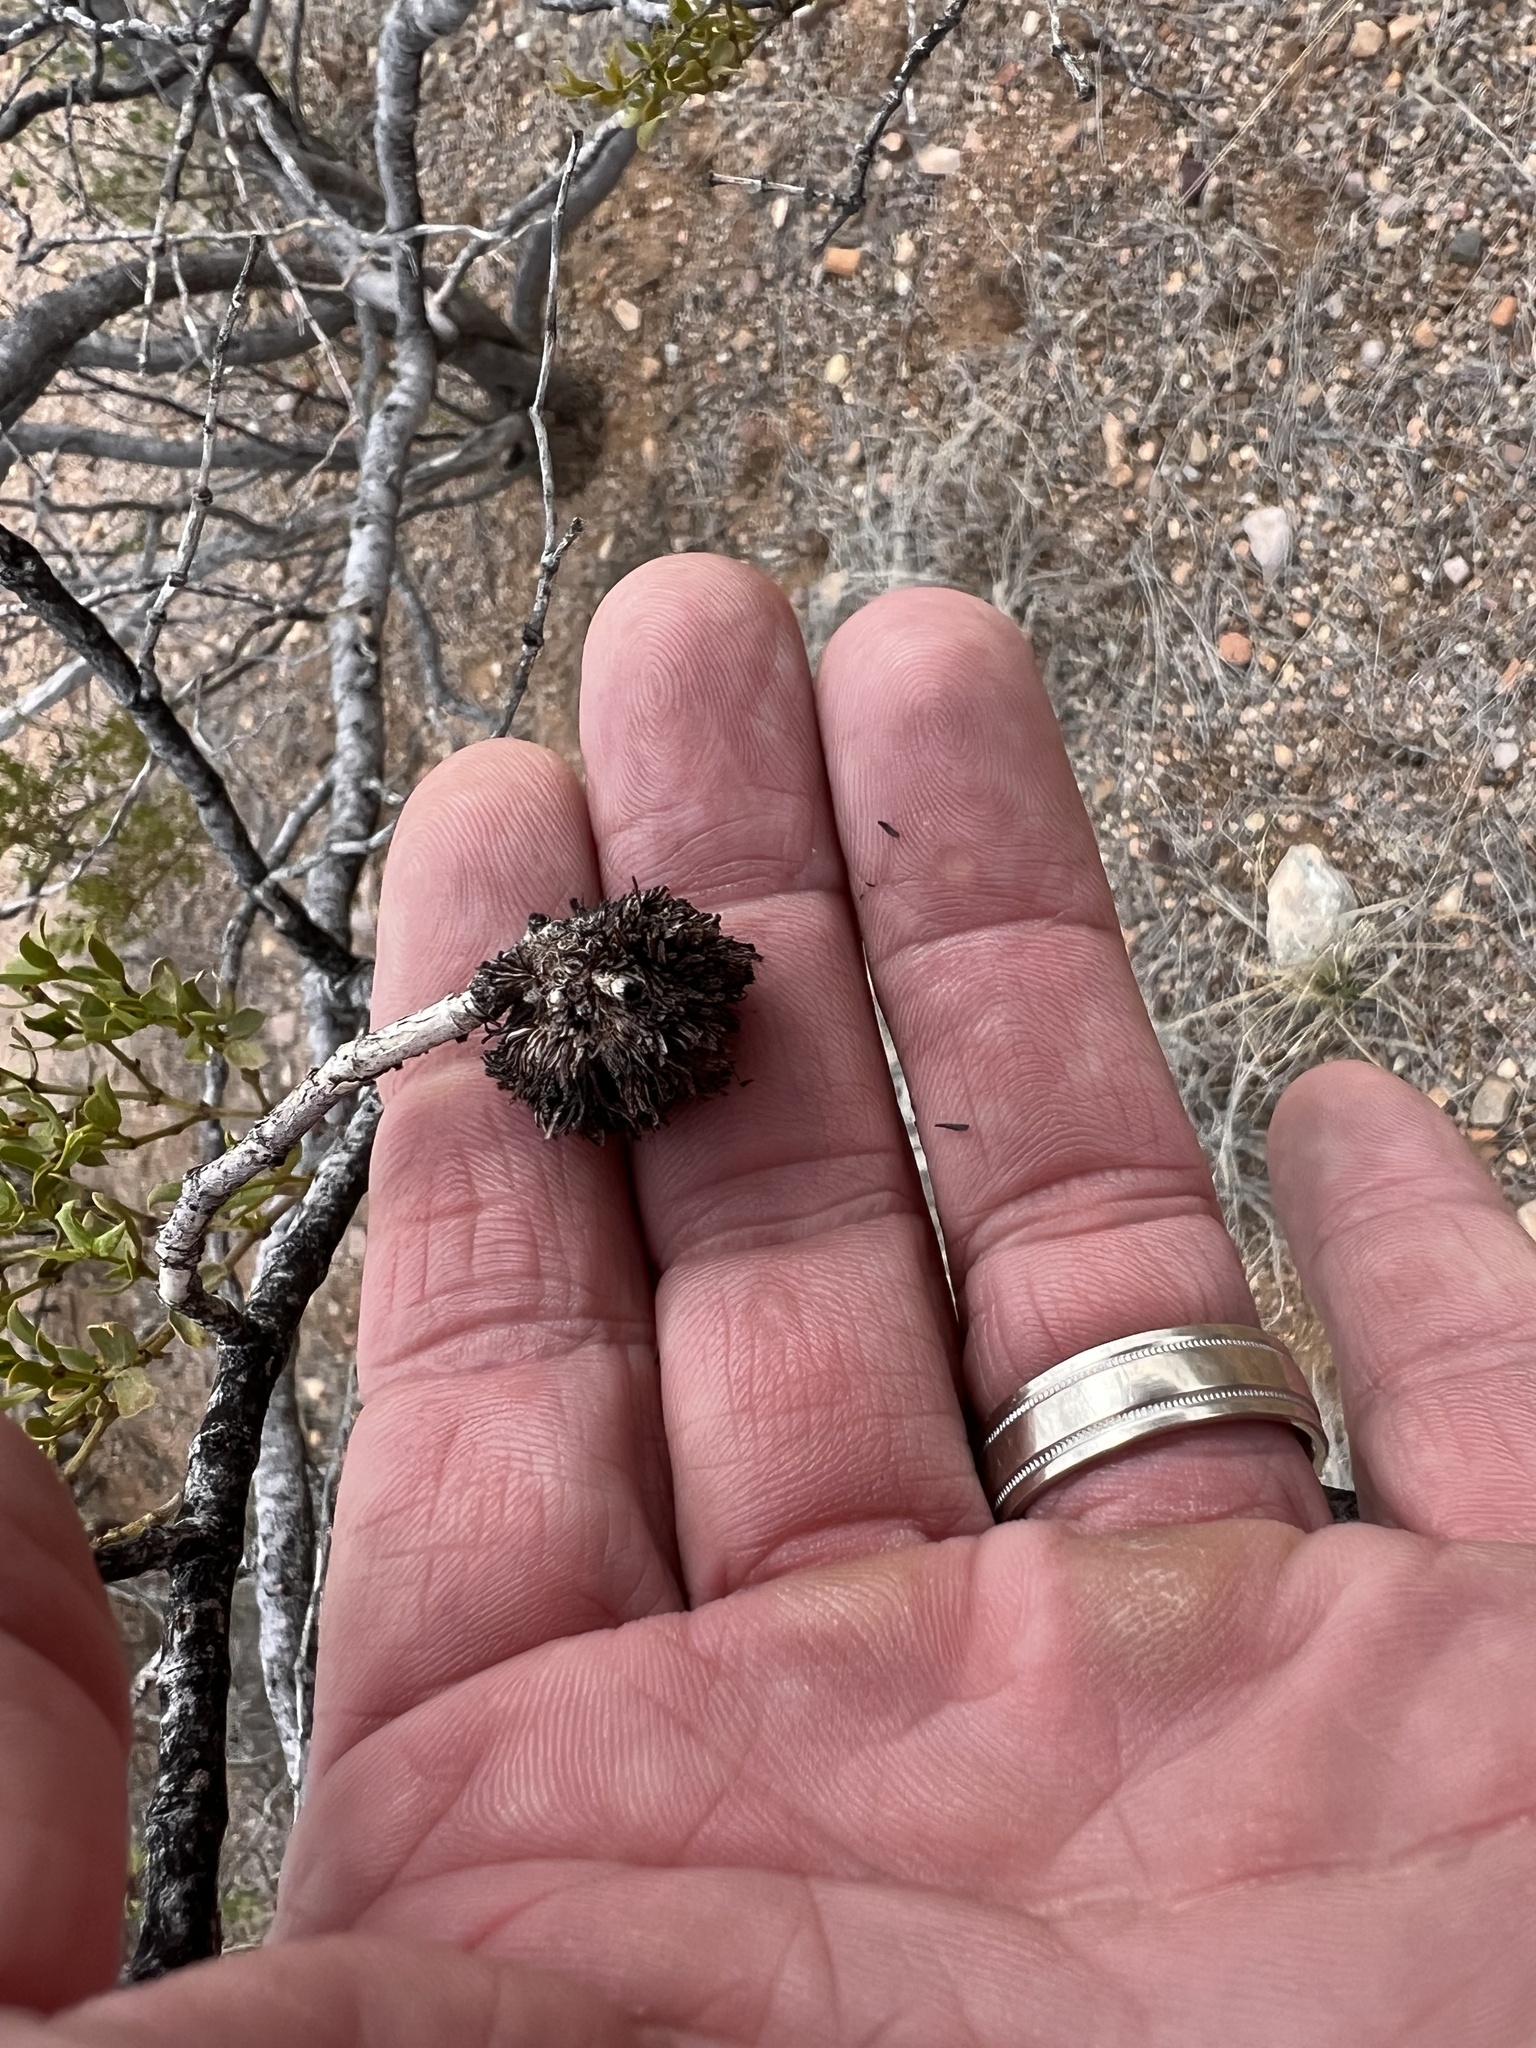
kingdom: Animalia
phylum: Arthropoda
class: Insecta
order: Diptera
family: Cecidomyiidae
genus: Asphondylia
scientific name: Asphondylia auripila
